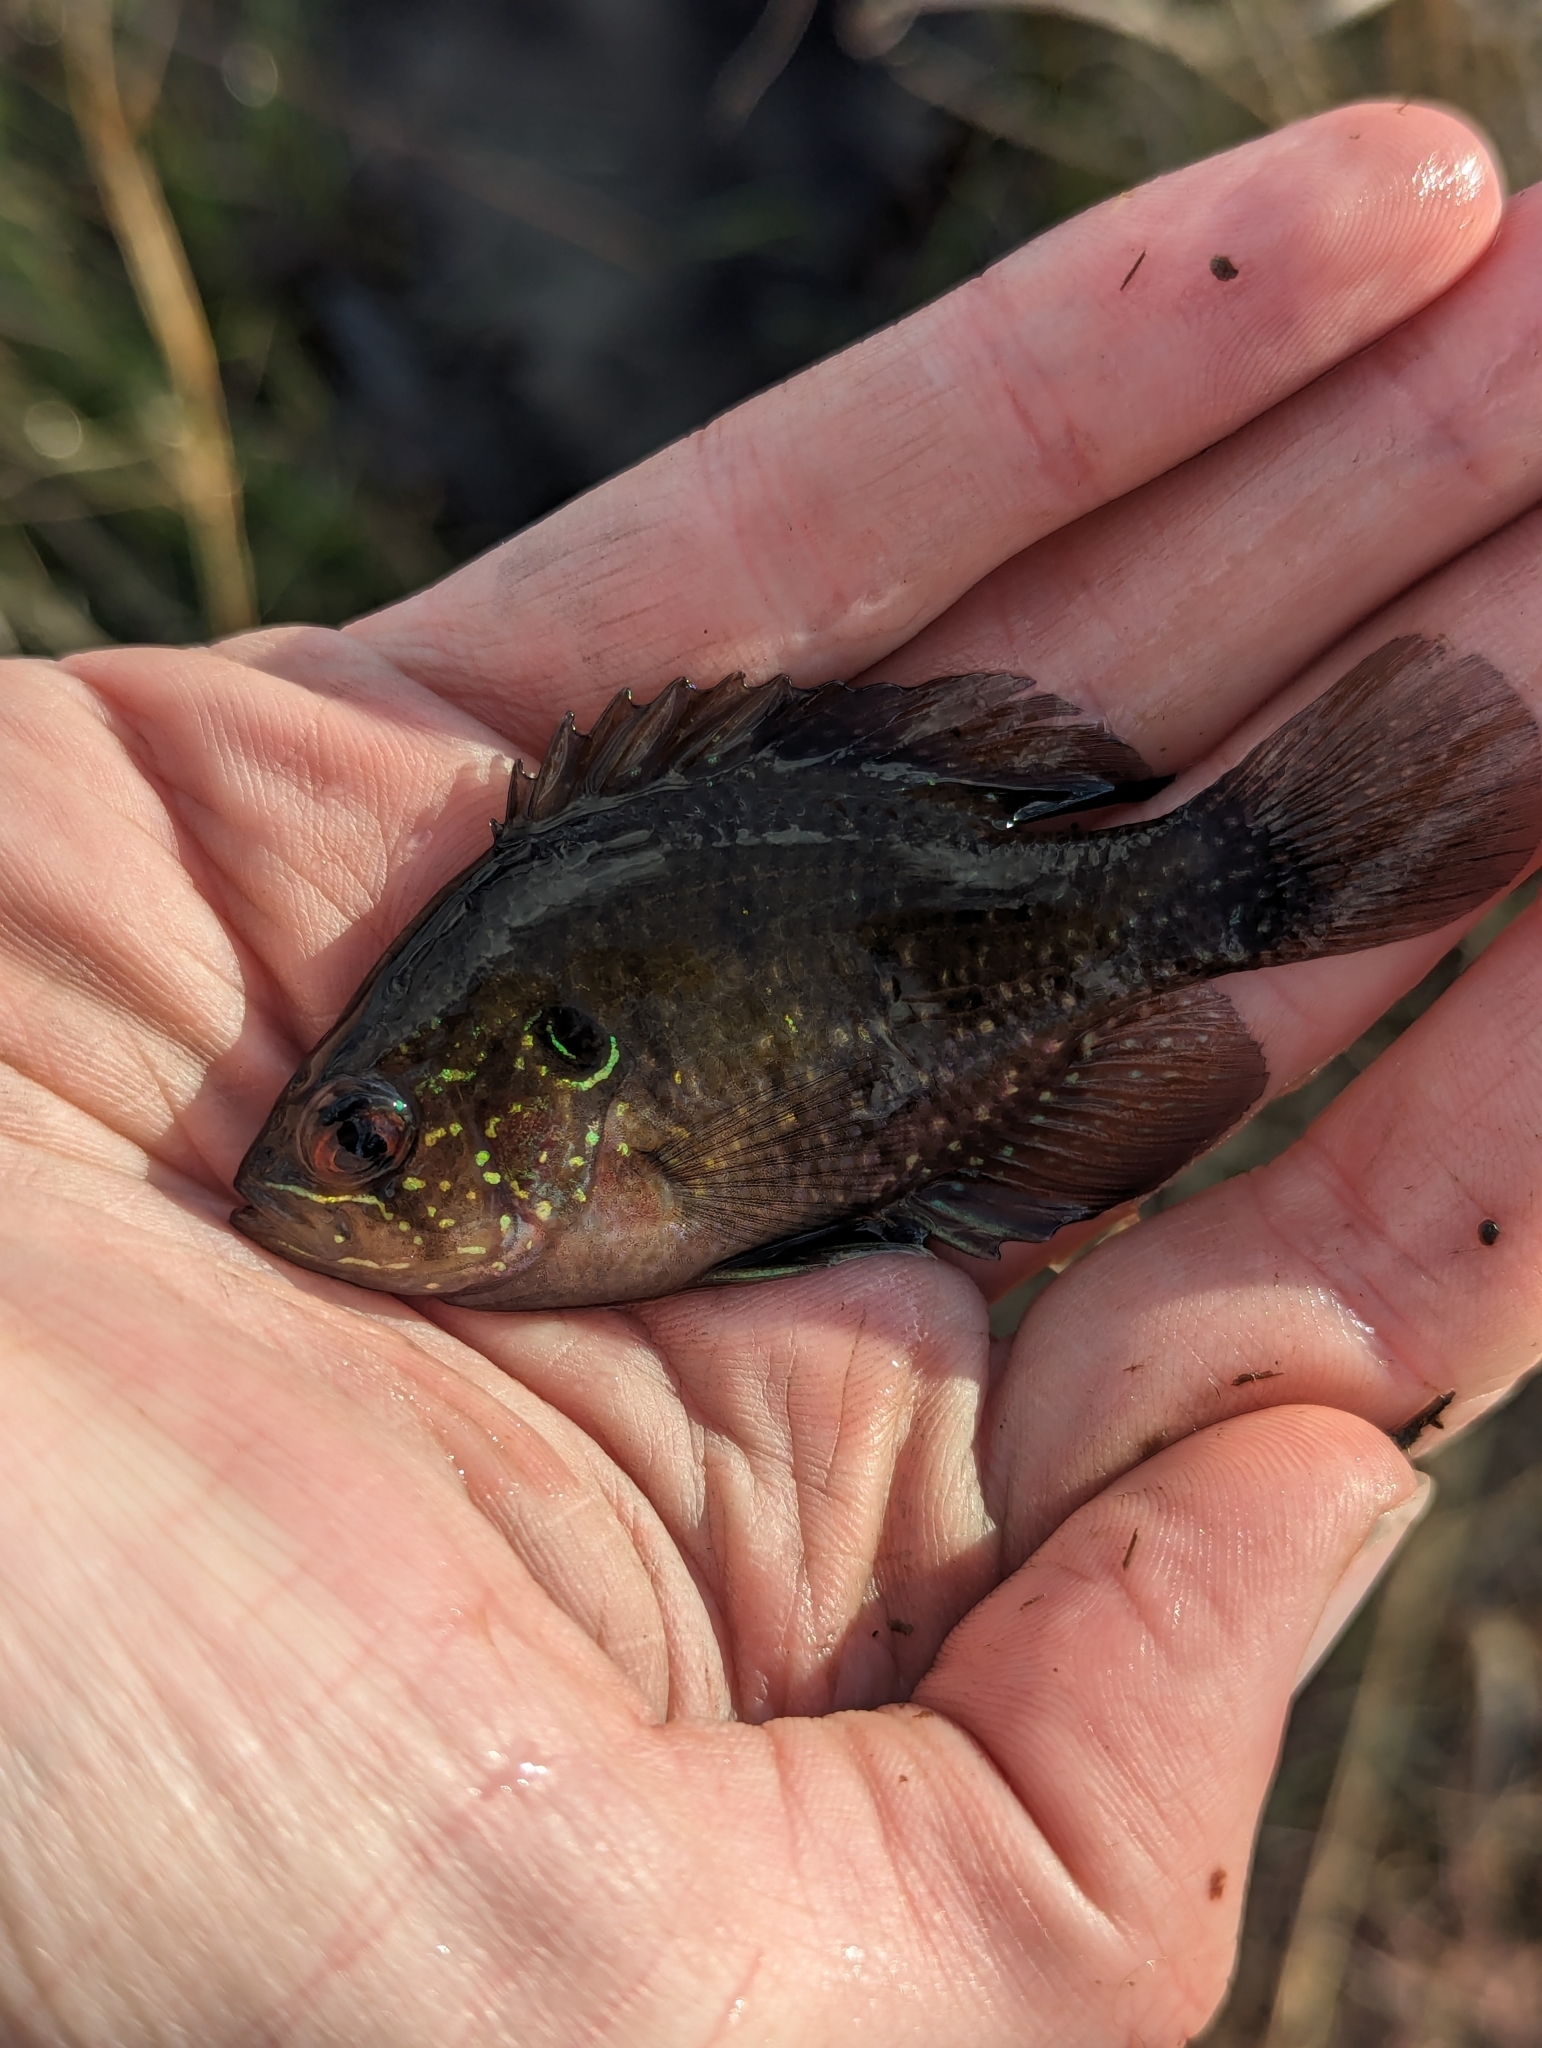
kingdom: Animalia
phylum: Chordata
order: Perciformes
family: Centrarchidae
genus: Enneacanthus
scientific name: Enneacanthus obesus
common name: Banded sunfish
